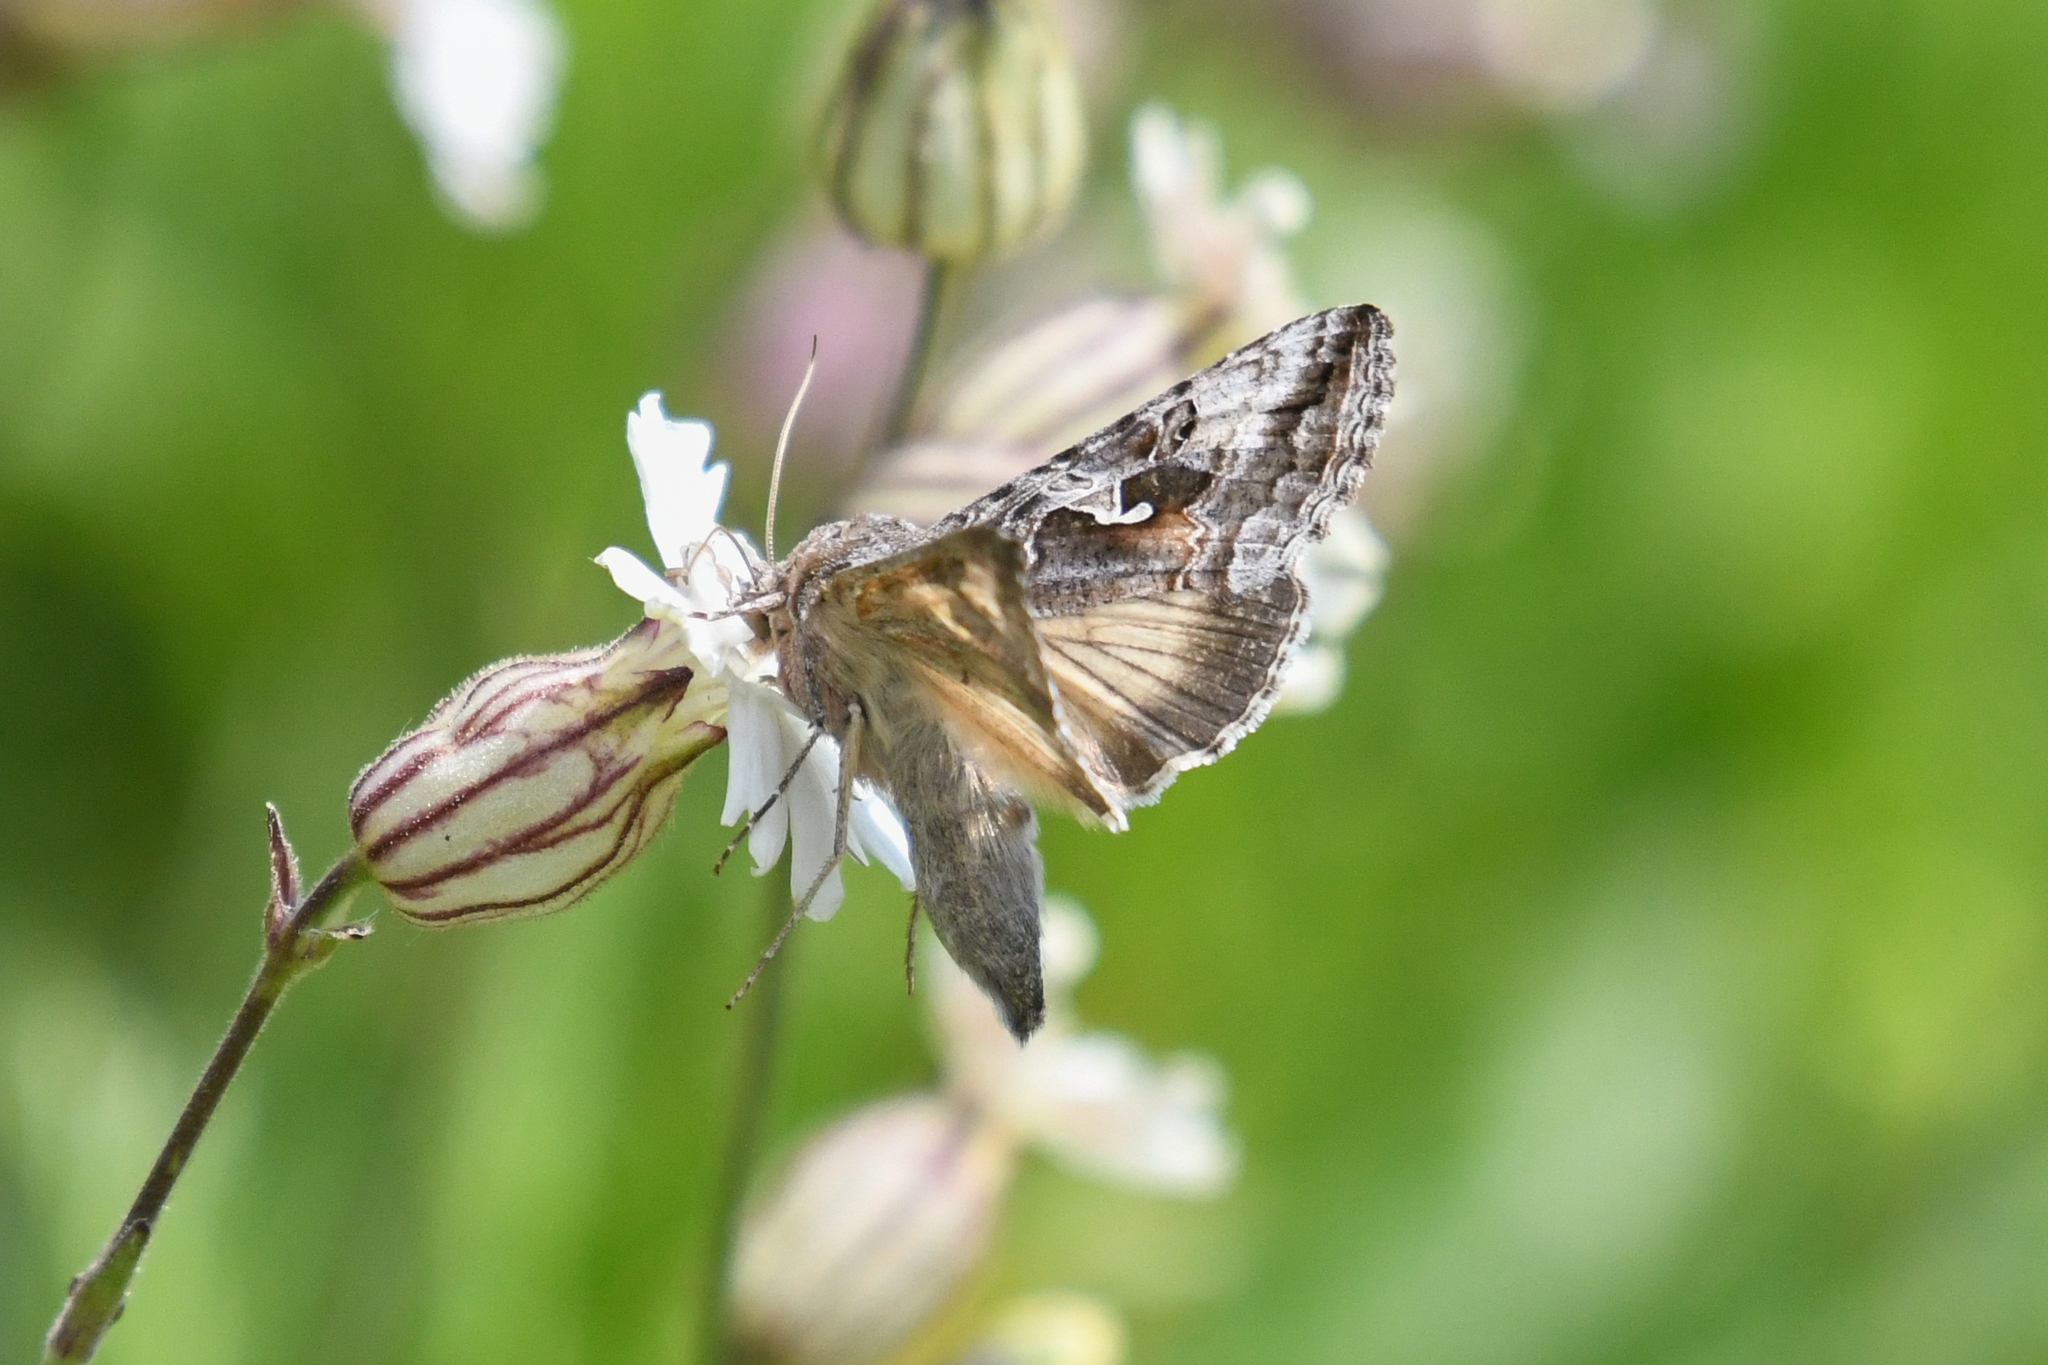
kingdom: Animalia
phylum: Arthropoda
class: Insecta
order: Lepidoptera
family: Noctuidae
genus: Autographa
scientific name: Autographa californica
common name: Alfalfa looper
